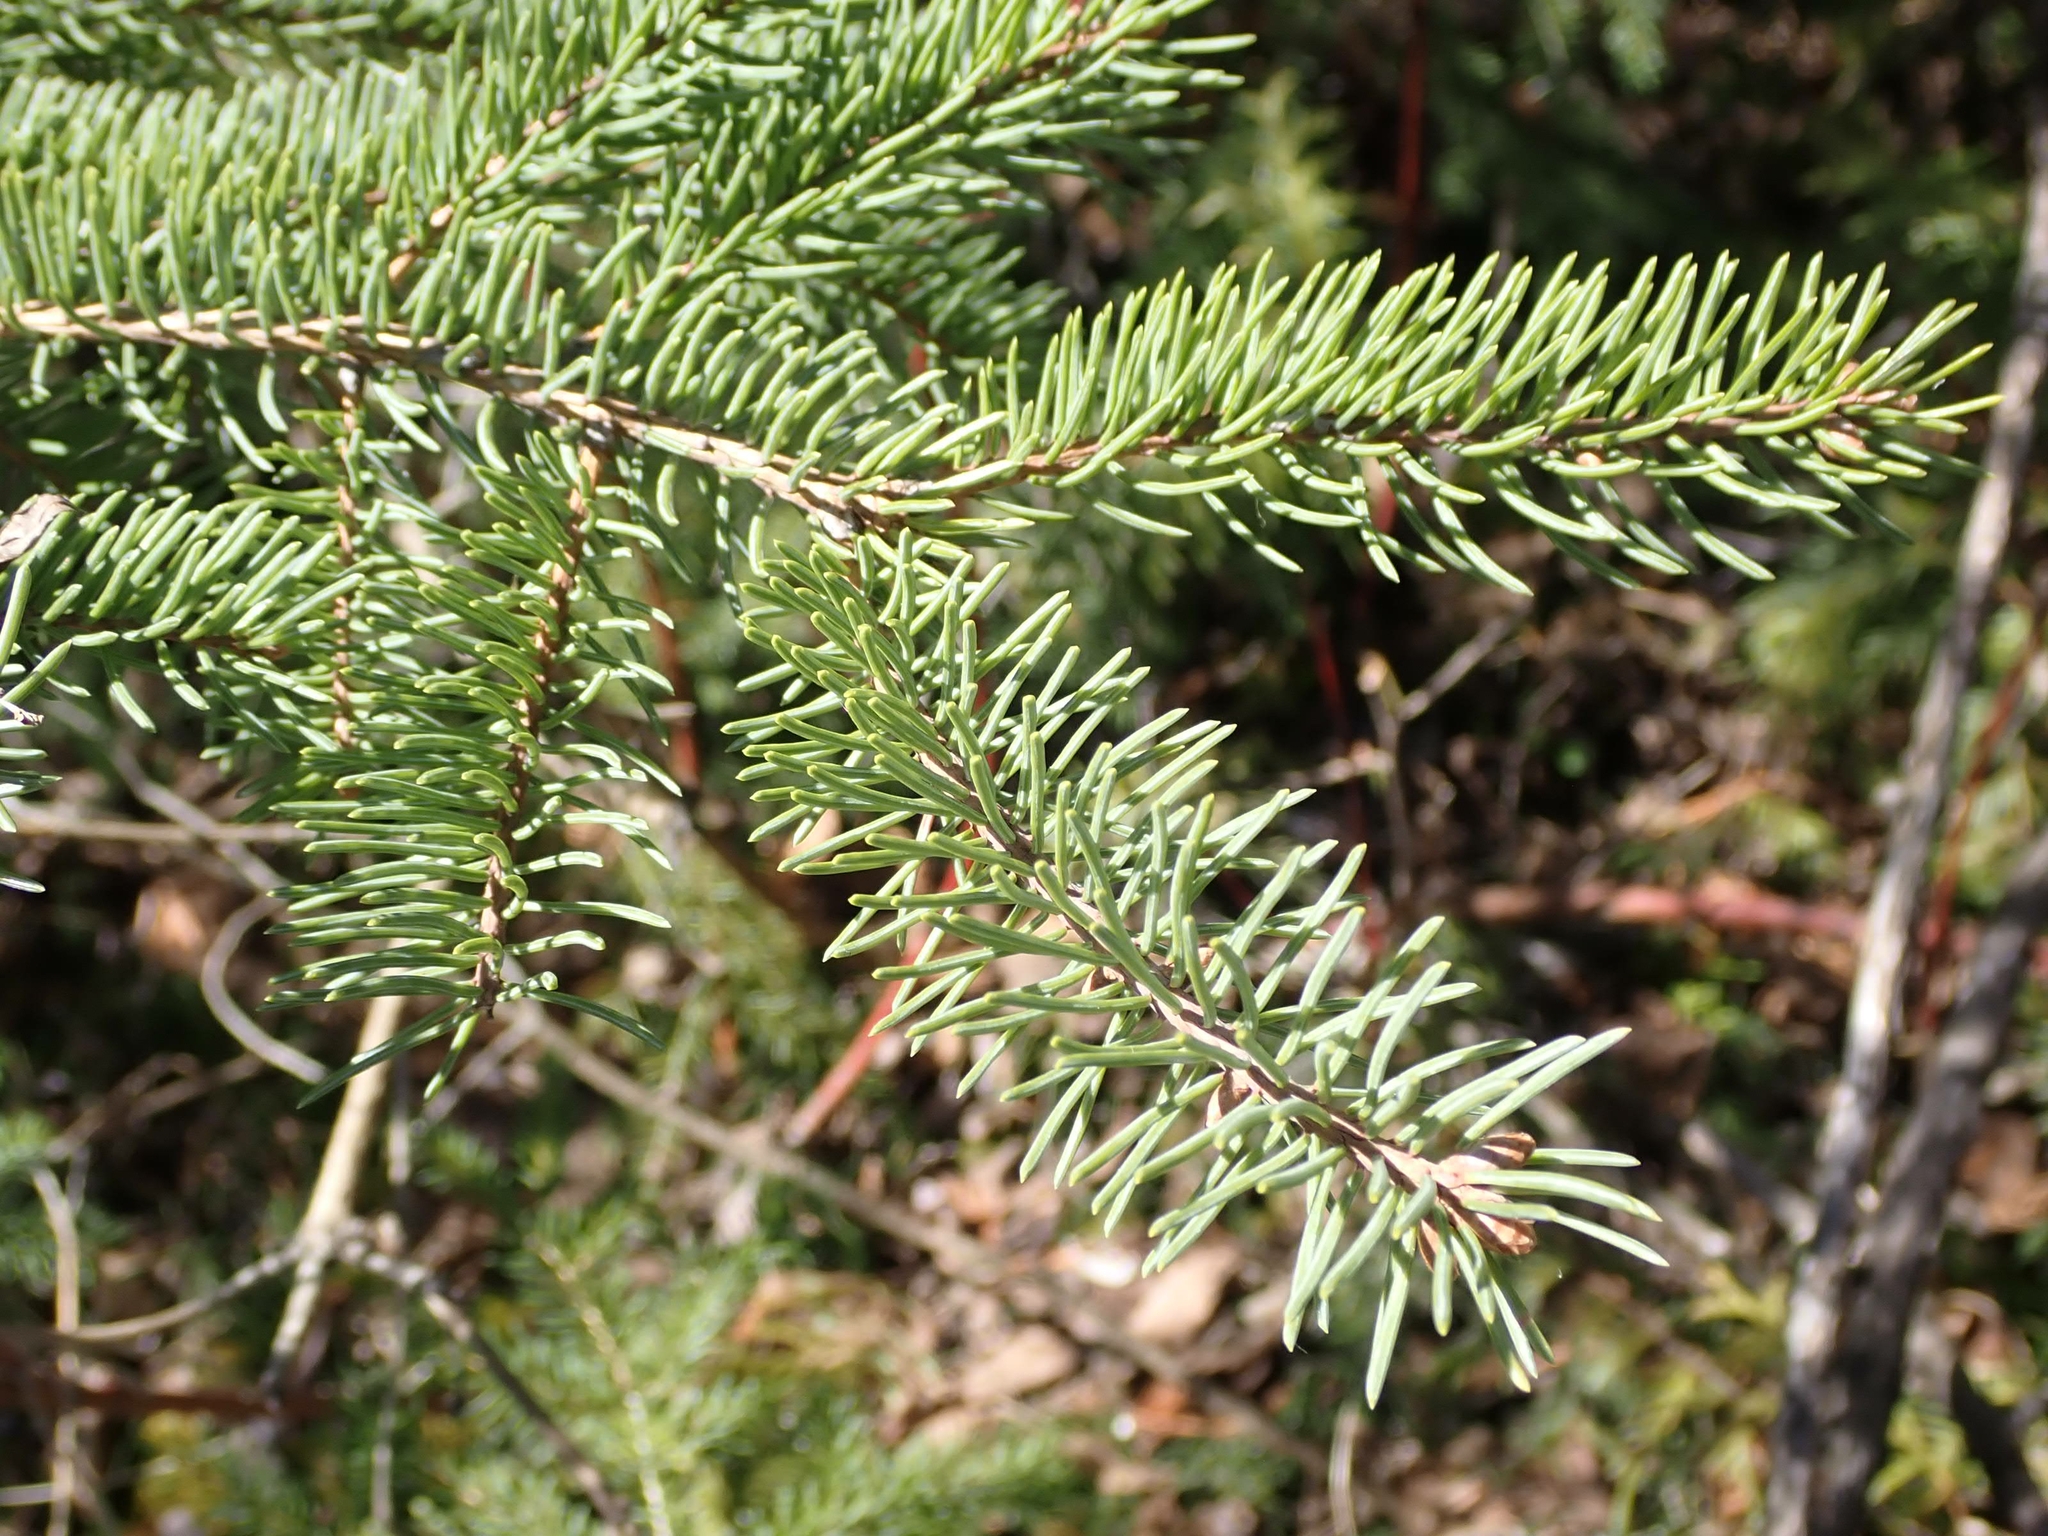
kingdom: Plantae
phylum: Tracheophyta
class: Pinopsida
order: Pinales
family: Pinaceae
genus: Picea
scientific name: Picea glauca
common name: White spruce
